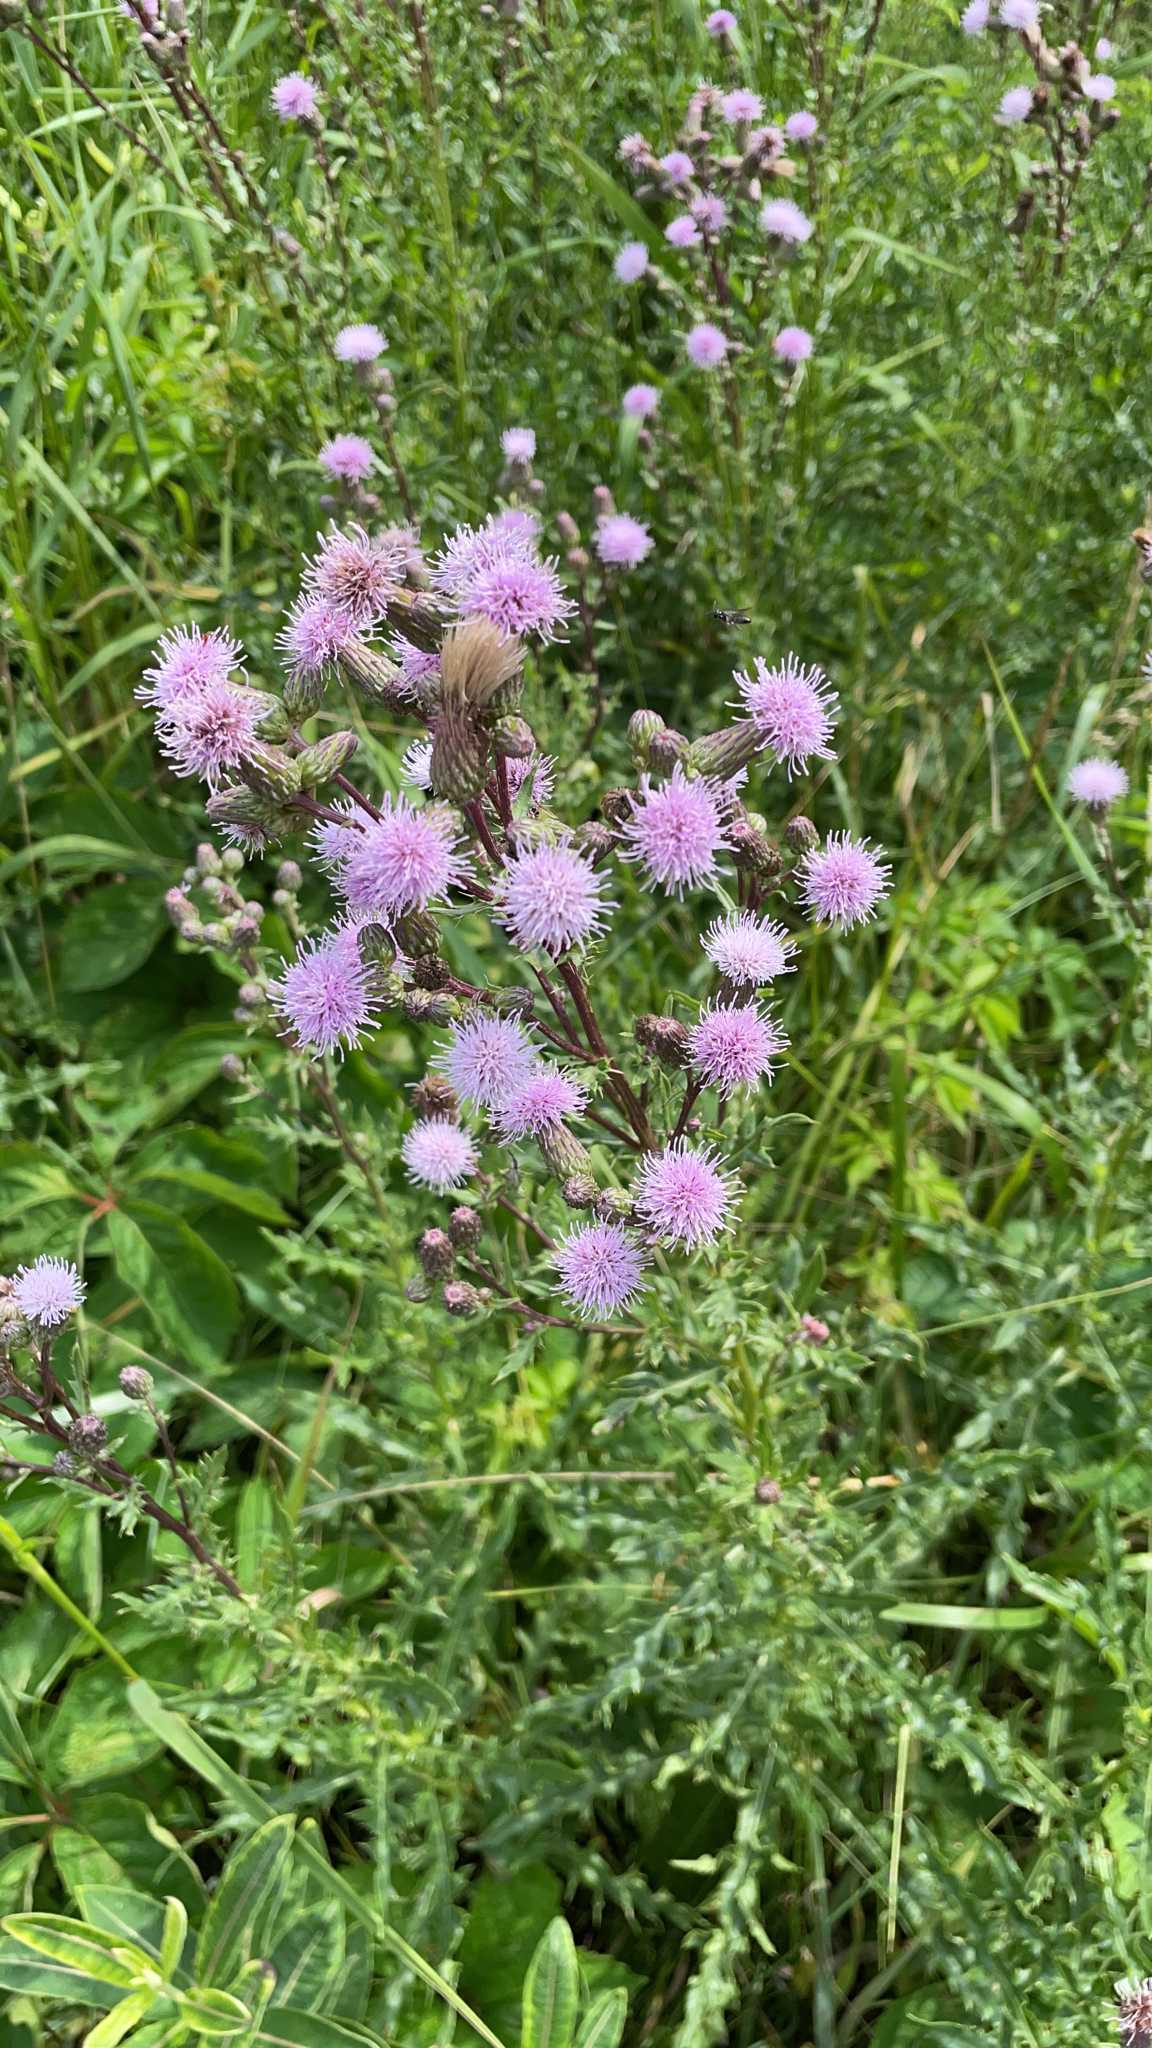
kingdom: Plantae
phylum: Tracheophyta
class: Magnoliopsida
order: Asterales
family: Asteraceae
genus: Cirsium
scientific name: Cirsium arvense
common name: Creeping thistle
